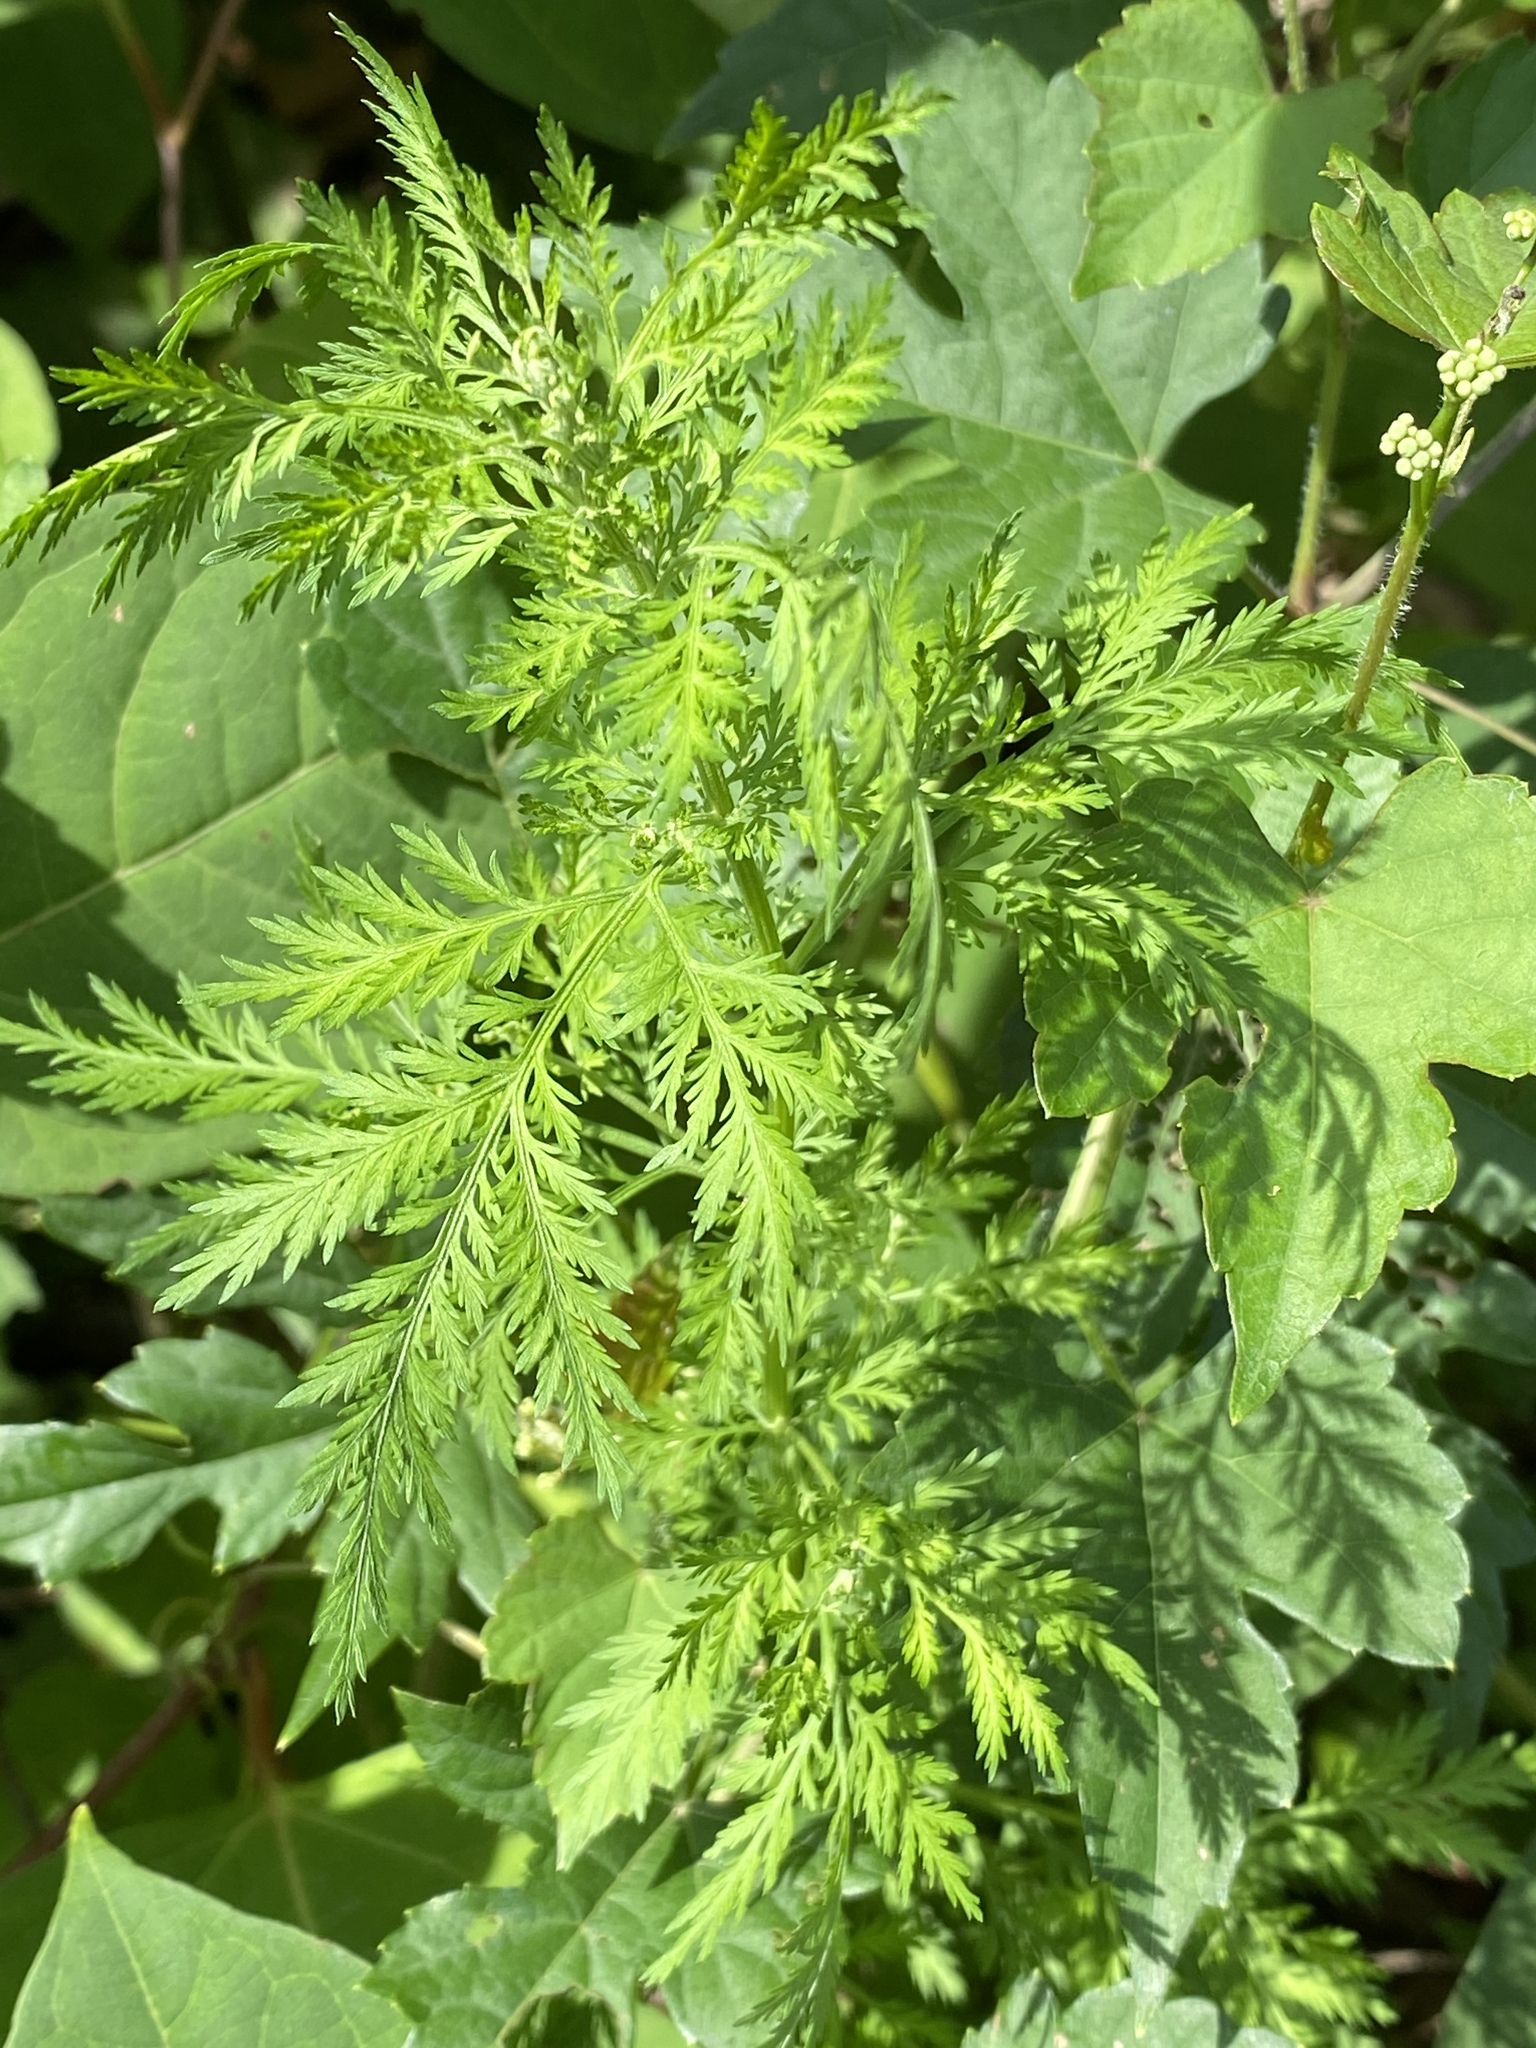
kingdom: Plantae
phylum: Tracheophyta
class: Magnoliopsida
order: Asterales
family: Asteraceae
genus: Artemisia
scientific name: Artemisia annua
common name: Sweet sagewort
